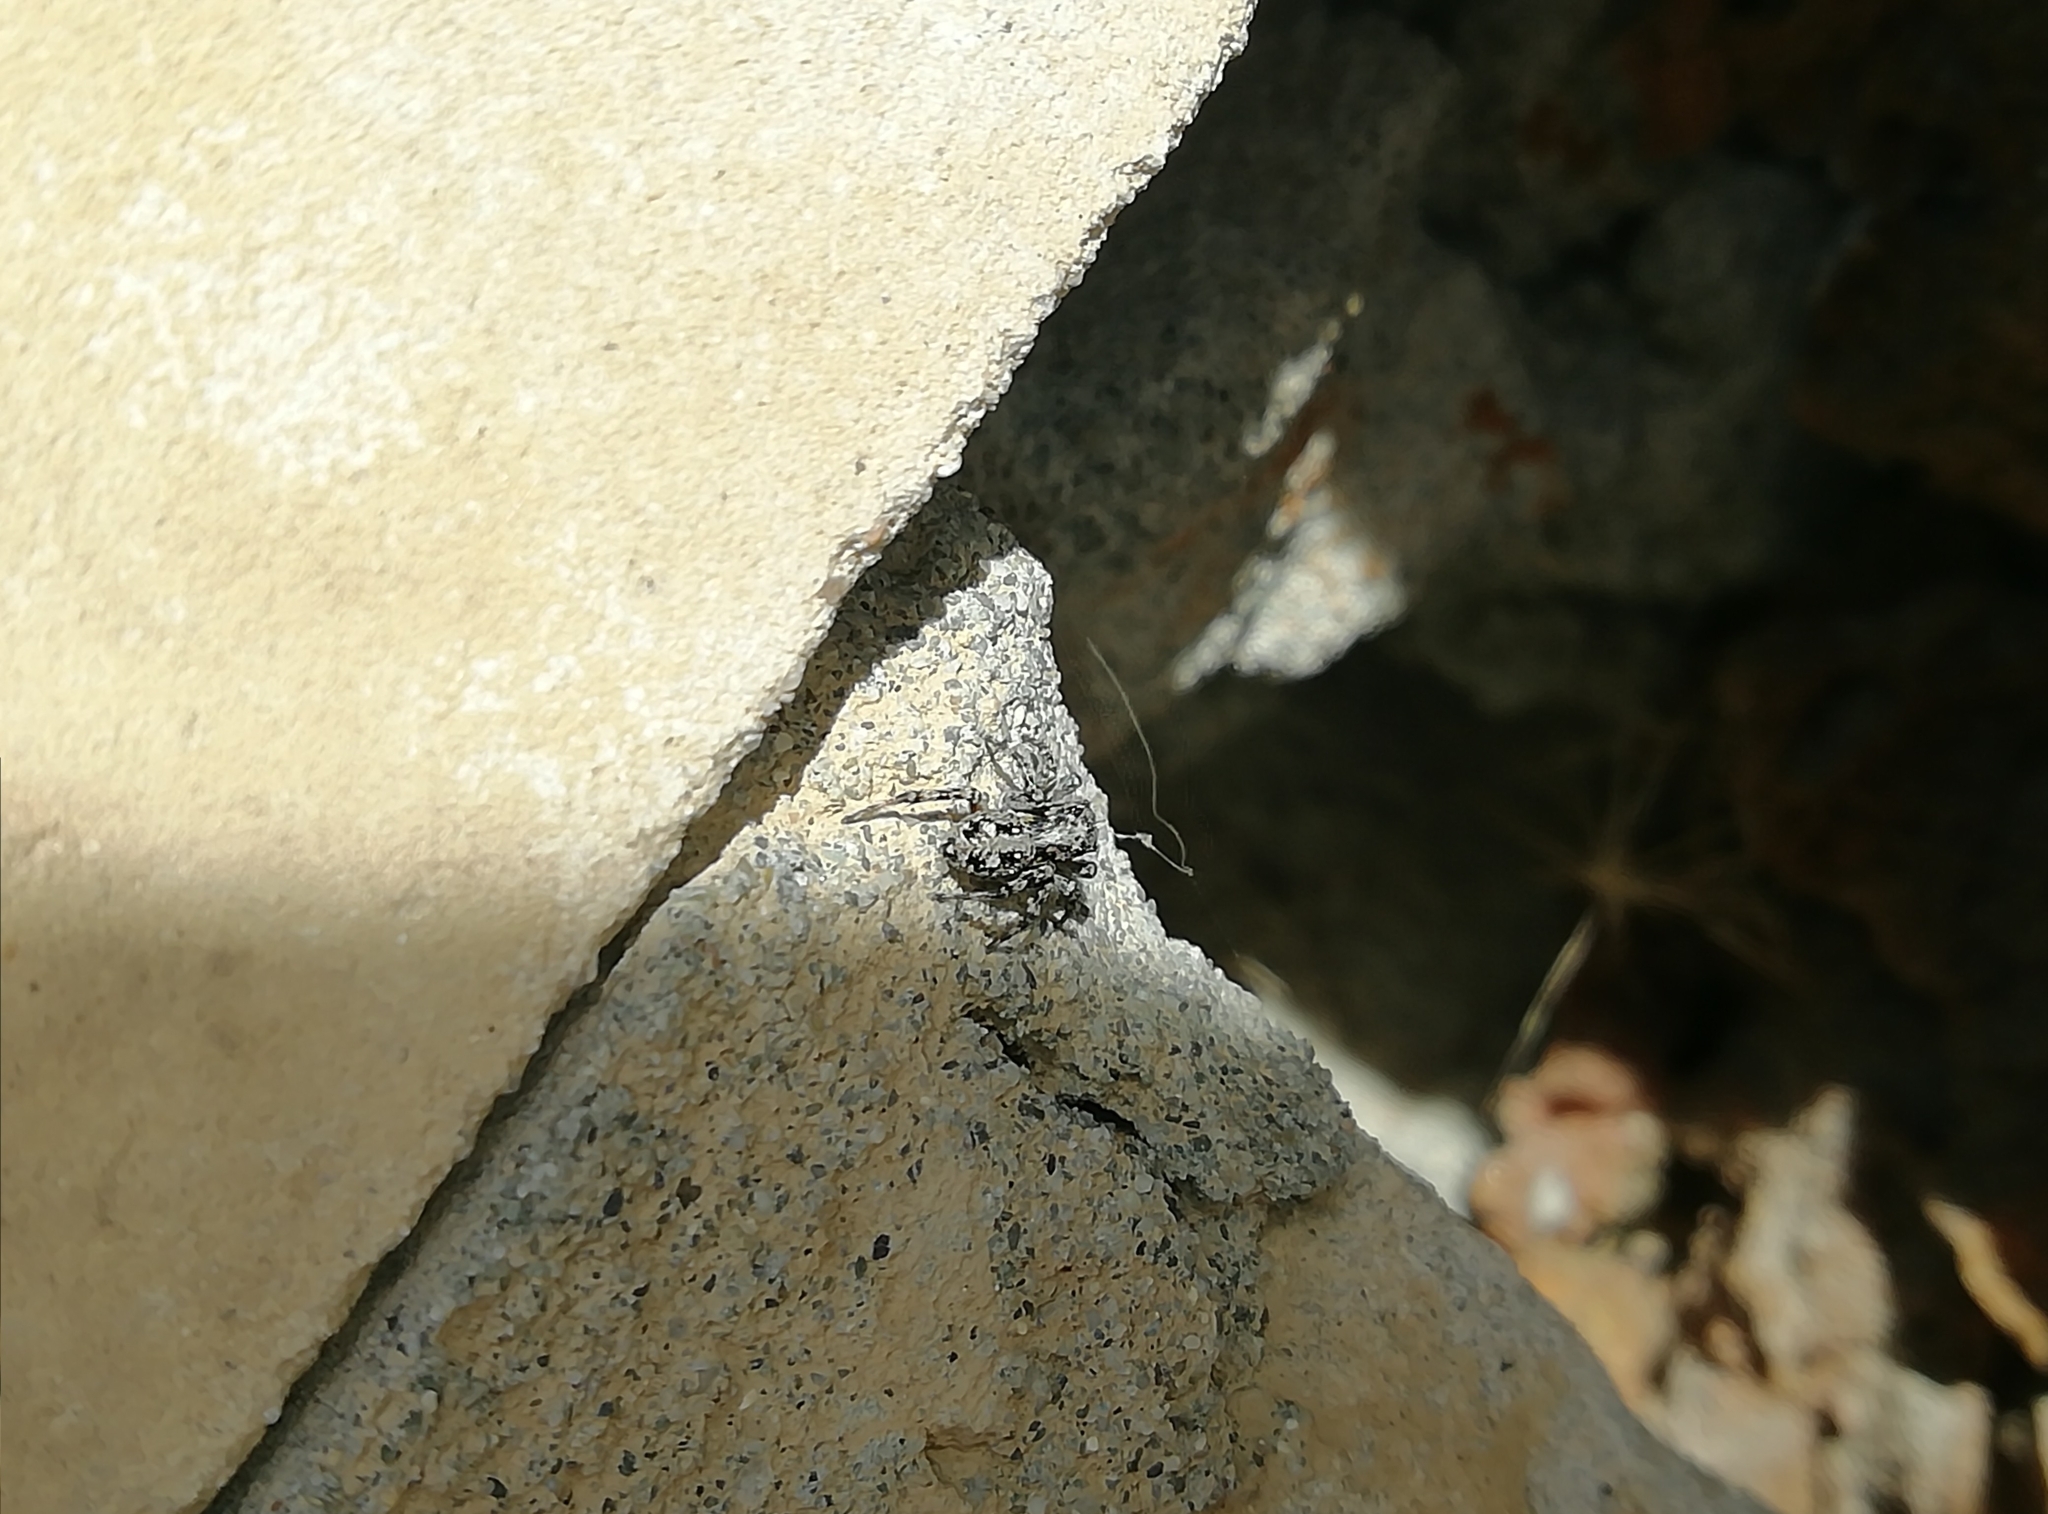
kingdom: Animalia
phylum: Arthropoda
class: Arachnida
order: Araneae
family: Salticidae
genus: Attulus
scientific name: Attulus terebratus
